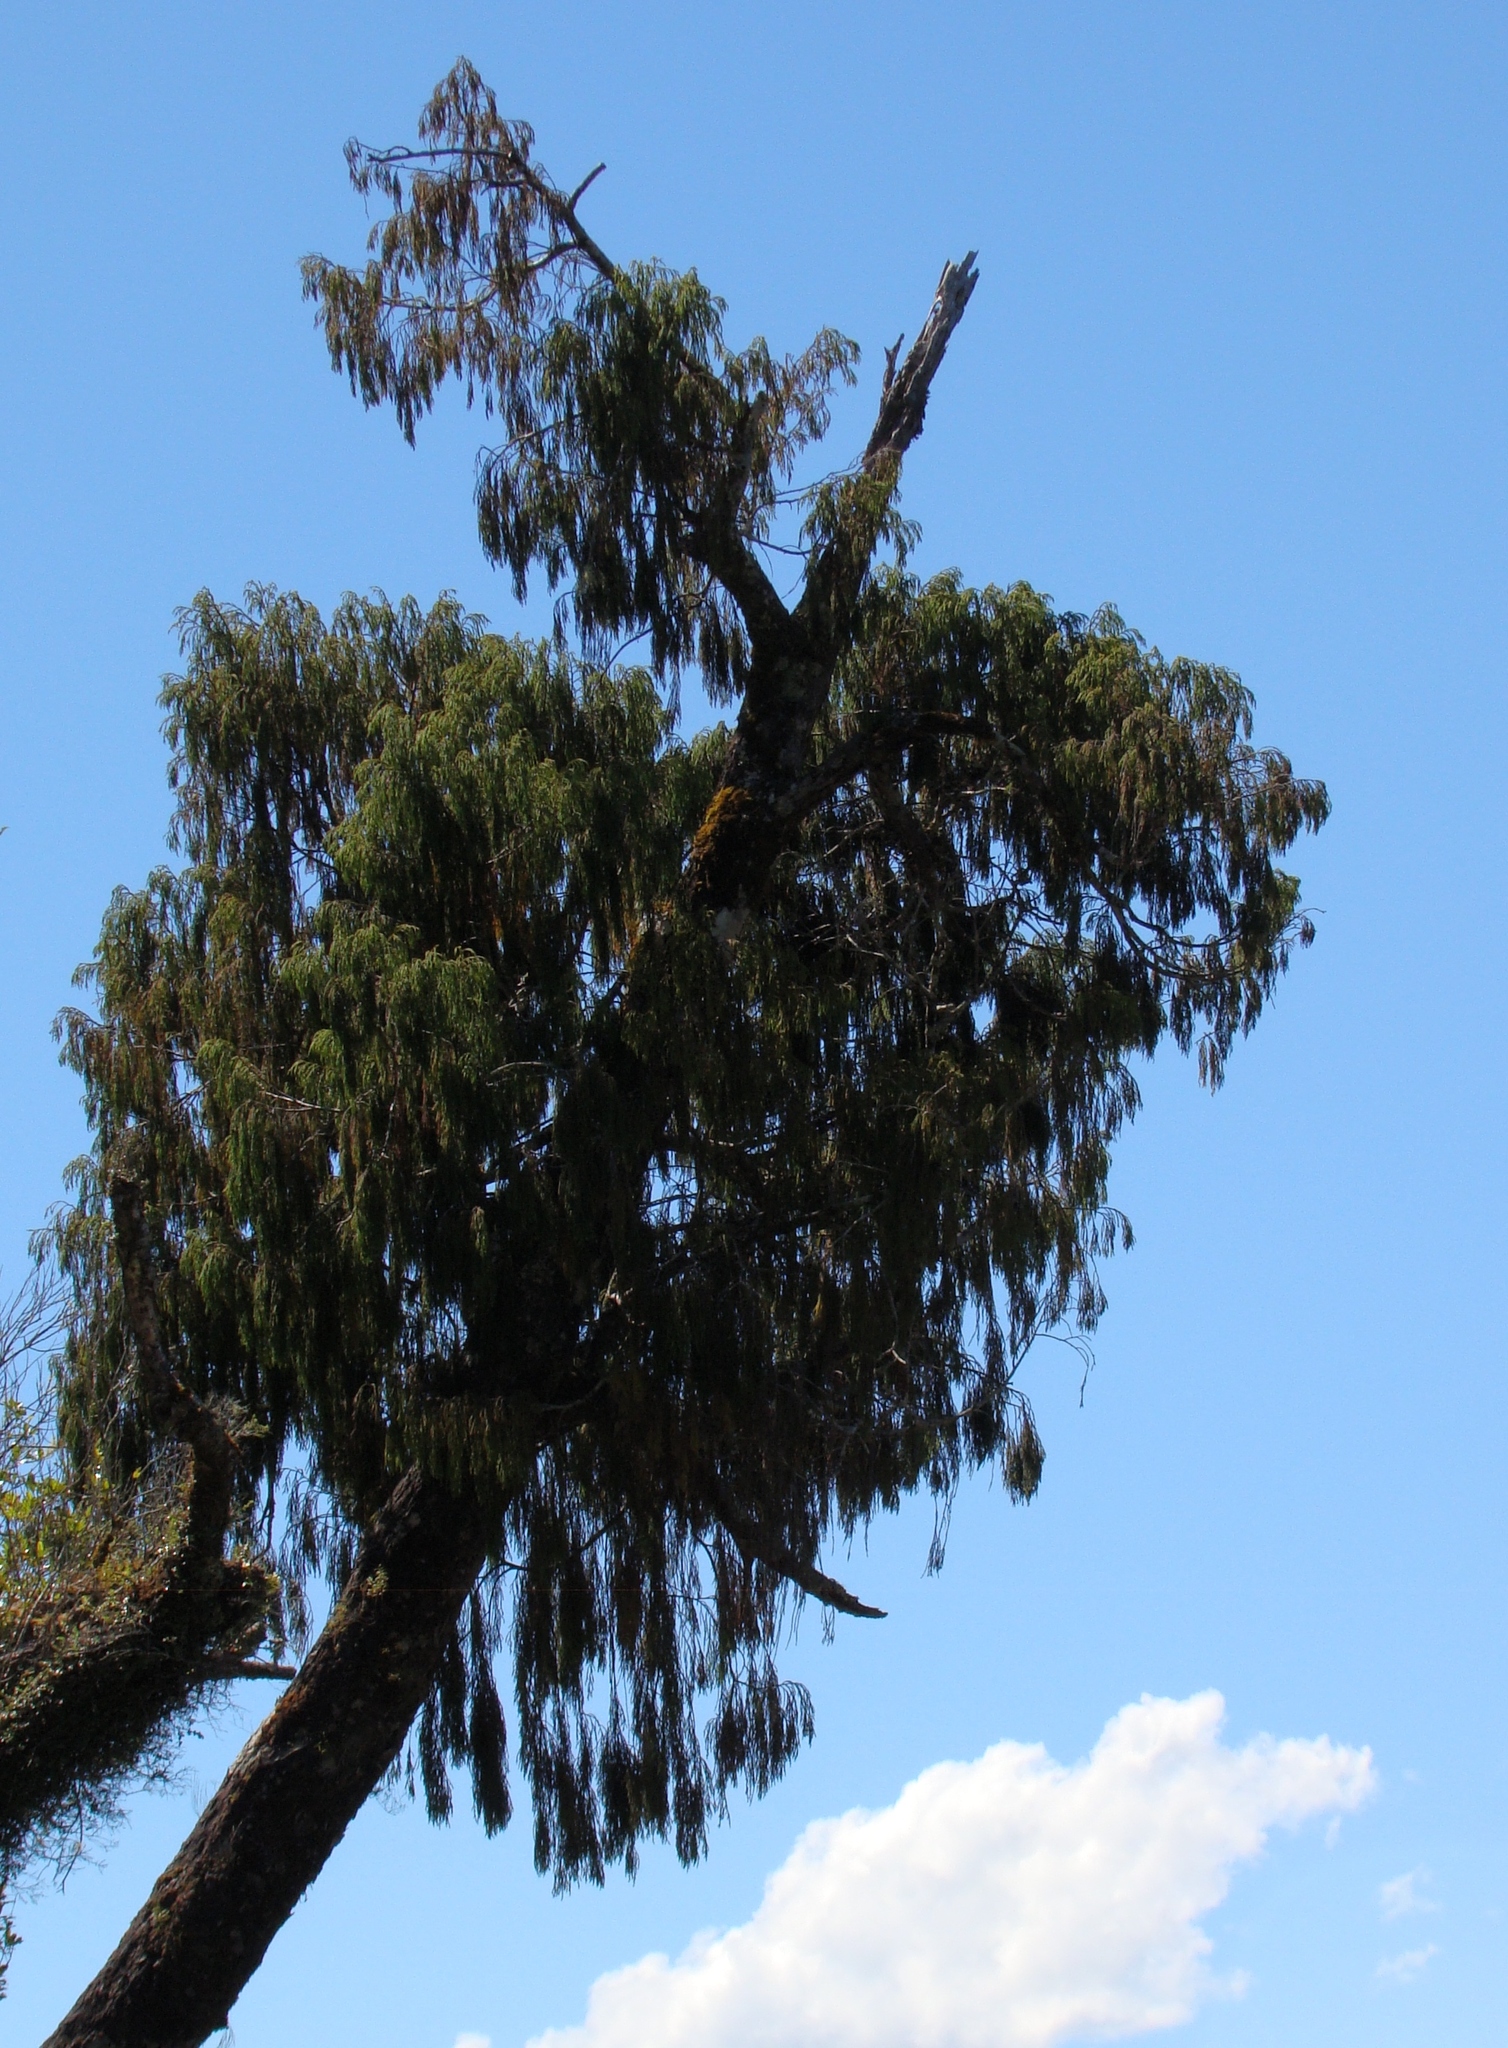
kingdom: Plantae
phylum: Tracheophyta
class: Pinopsida
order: Pinales
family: Podocarpaceae
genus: Dacrydium
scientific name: Dacrydium cupressinum
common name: Red pine
